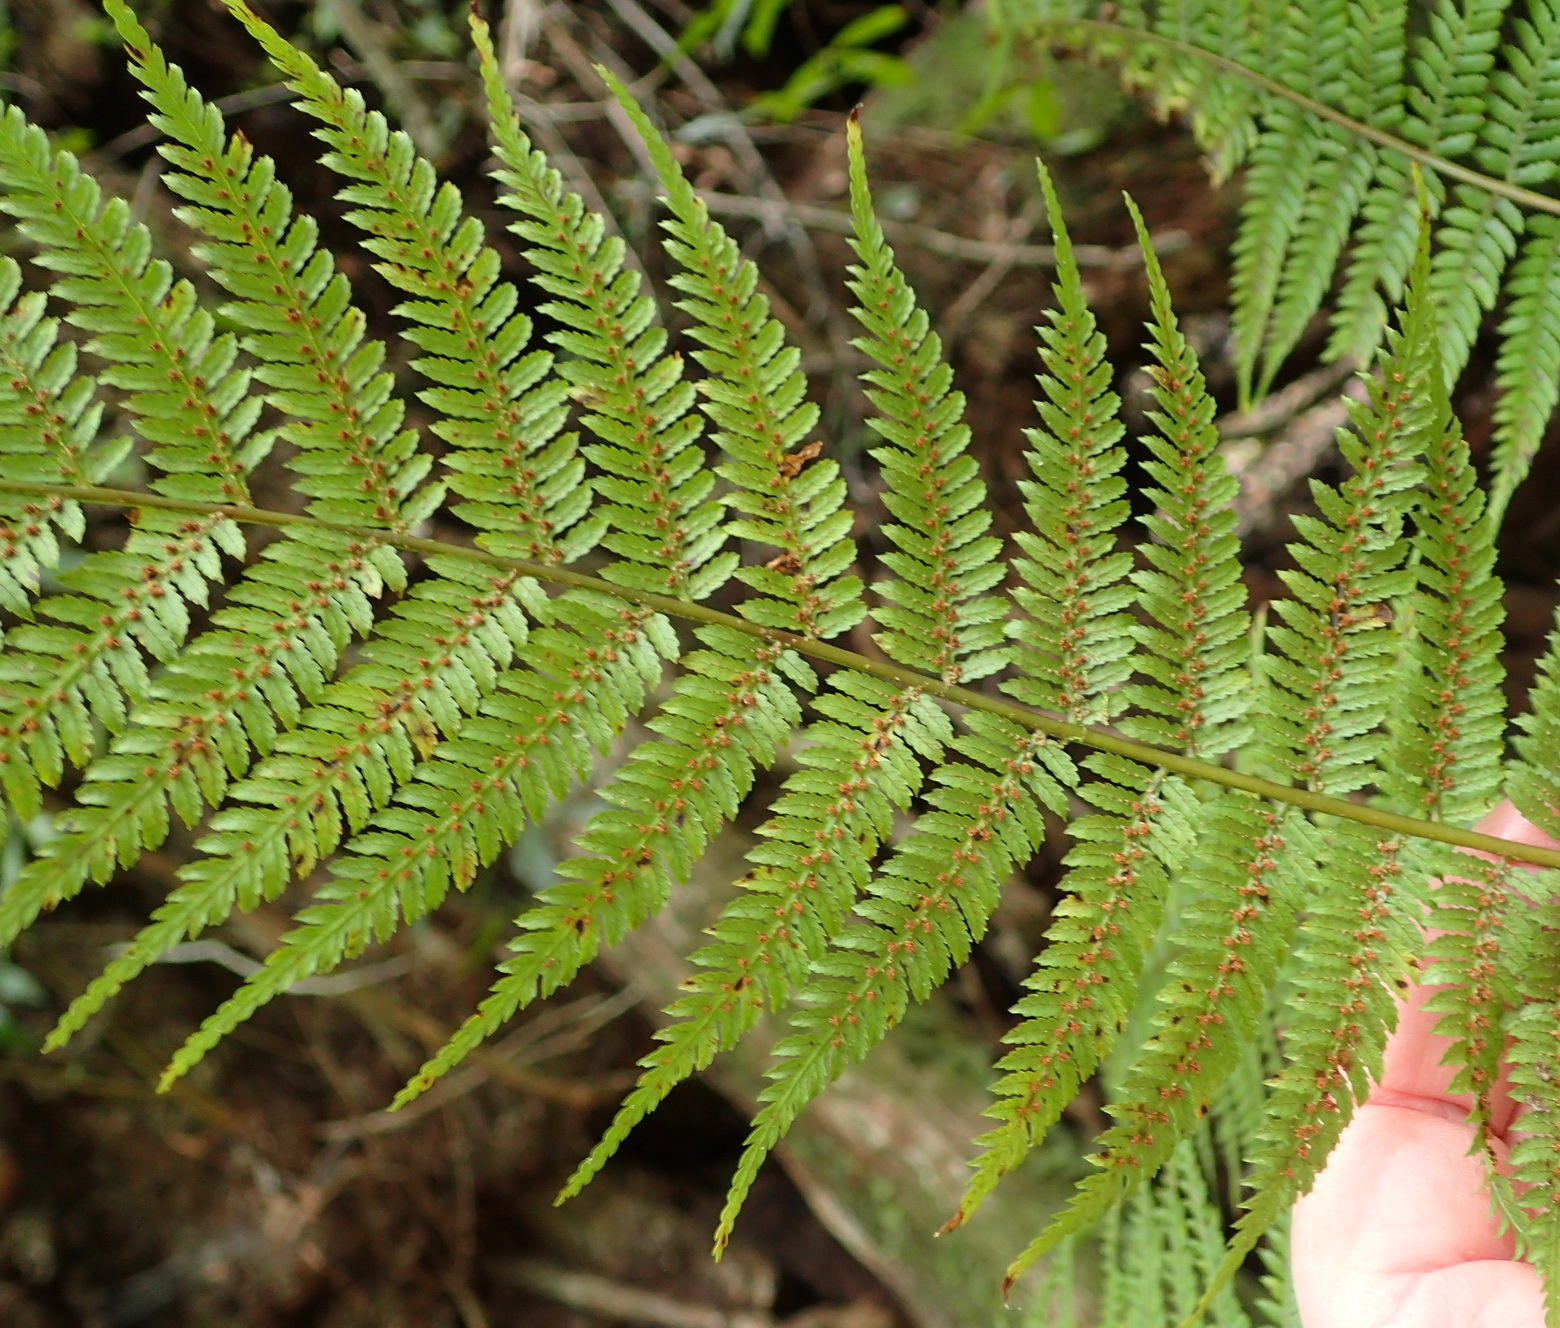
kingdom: Plantae
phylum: Tracheophyta
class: Polypodiopsida
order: Cyatheales
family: Cyatheaceae
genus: Gymnosphaera
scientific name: Gymnosphaera capensis
